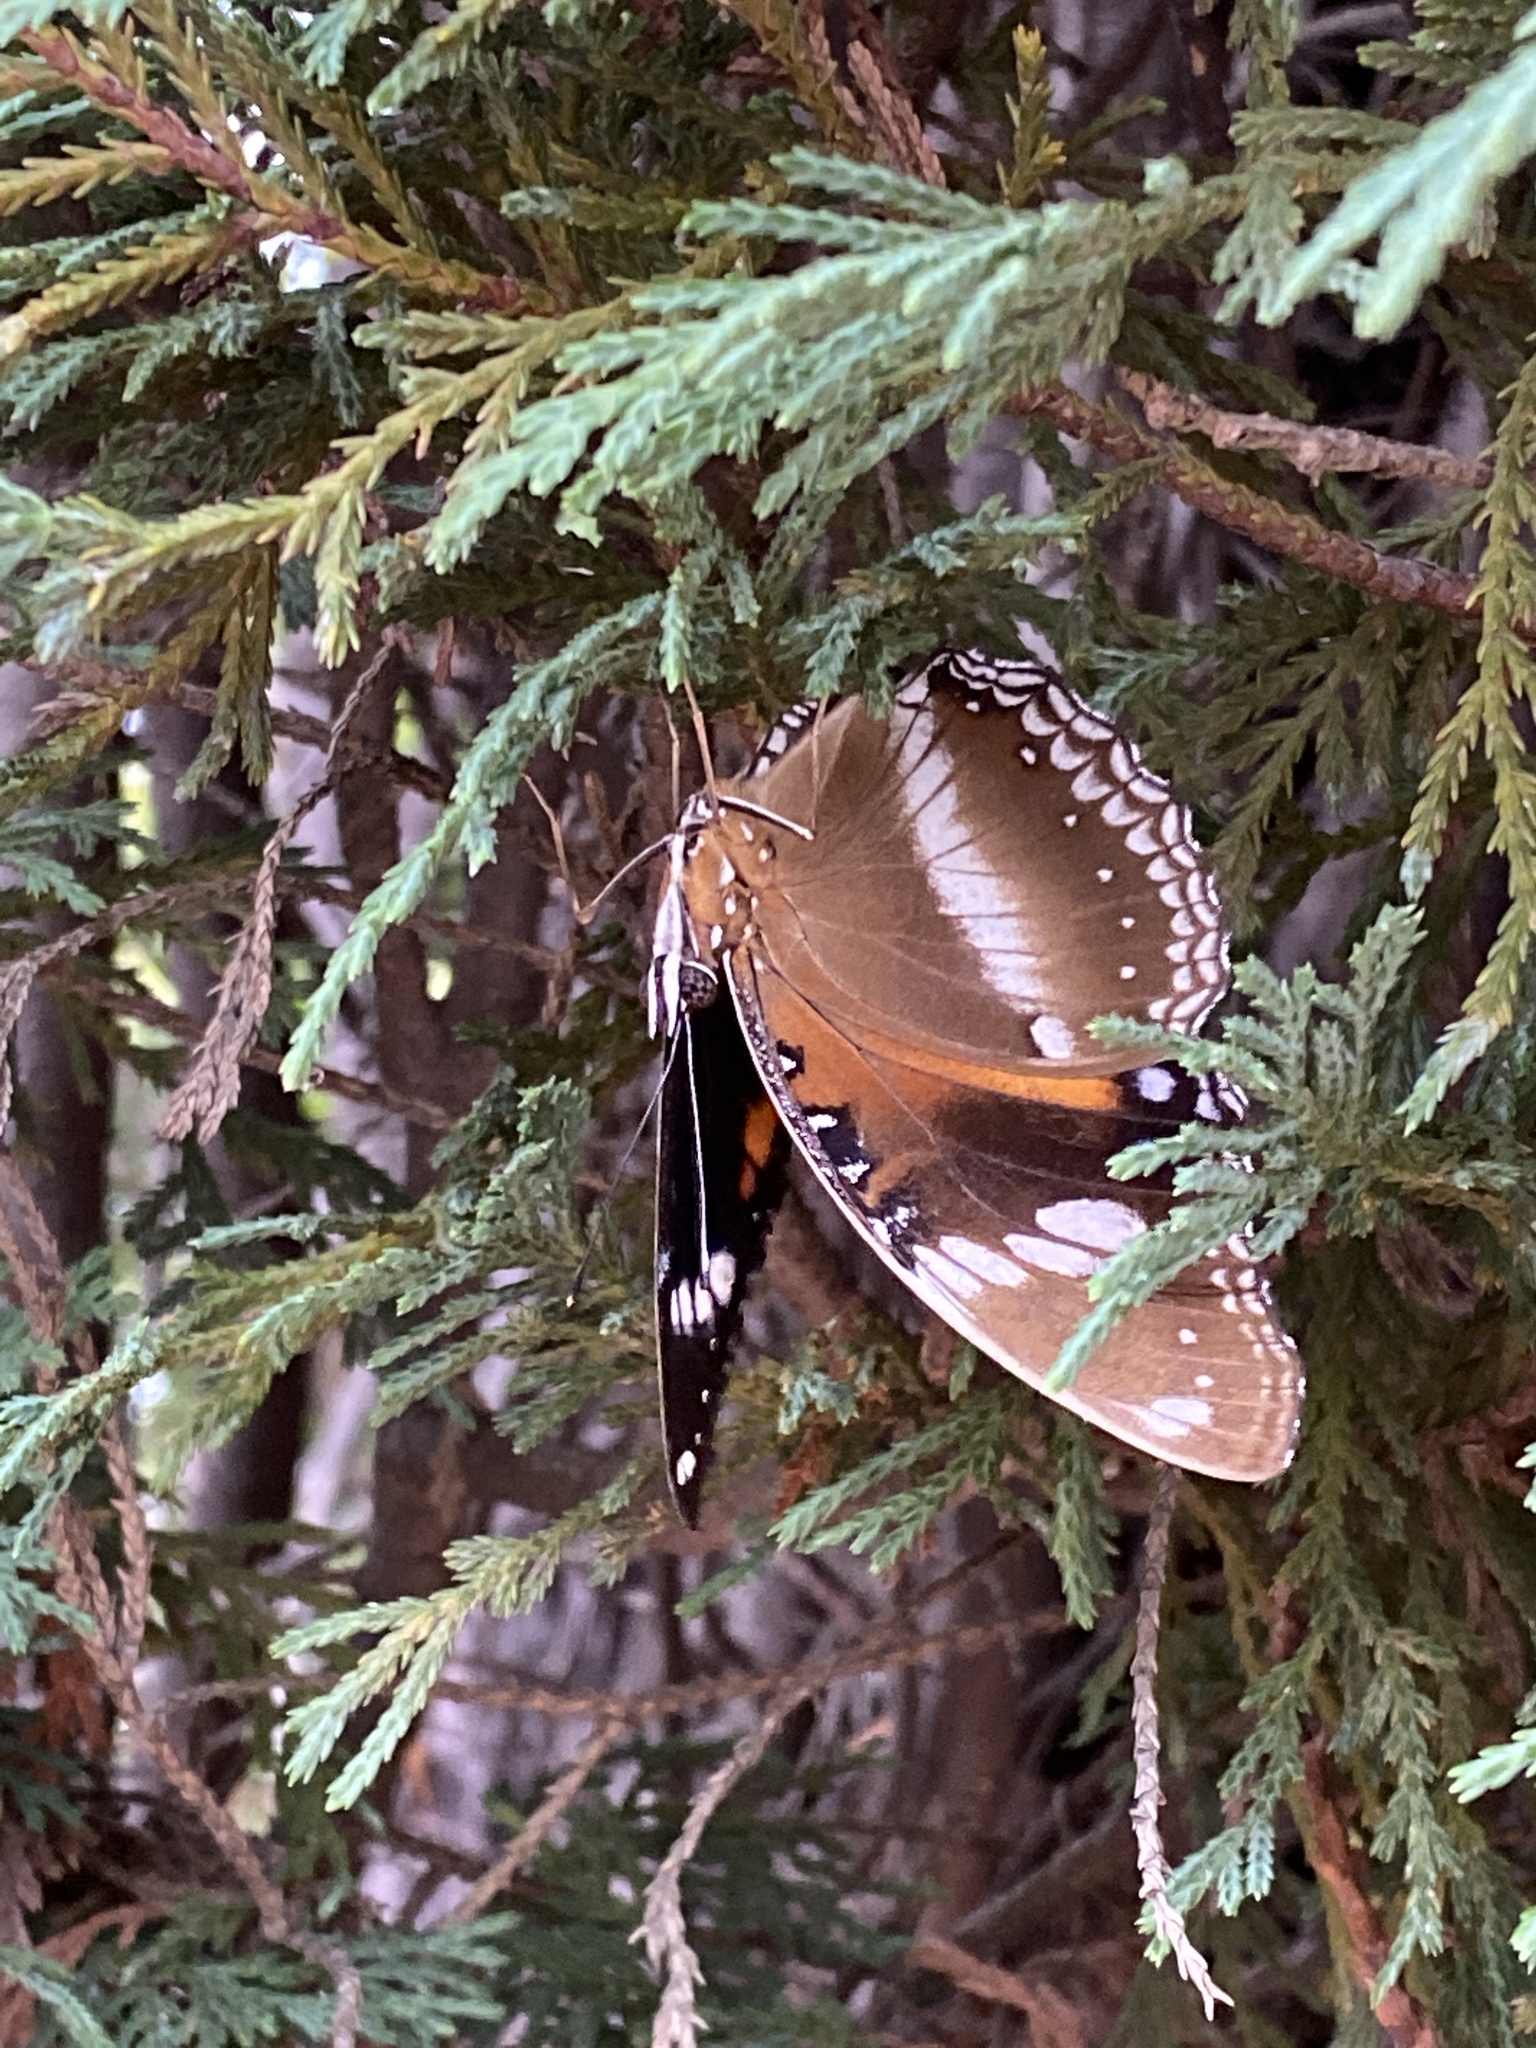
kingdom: Animalia
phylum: Arthropoda
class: Insecta
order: Lepidoptera
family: Nymphalidae
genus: Hypolimnas
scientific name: Hypolimnas bolina
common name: Great eggfly
